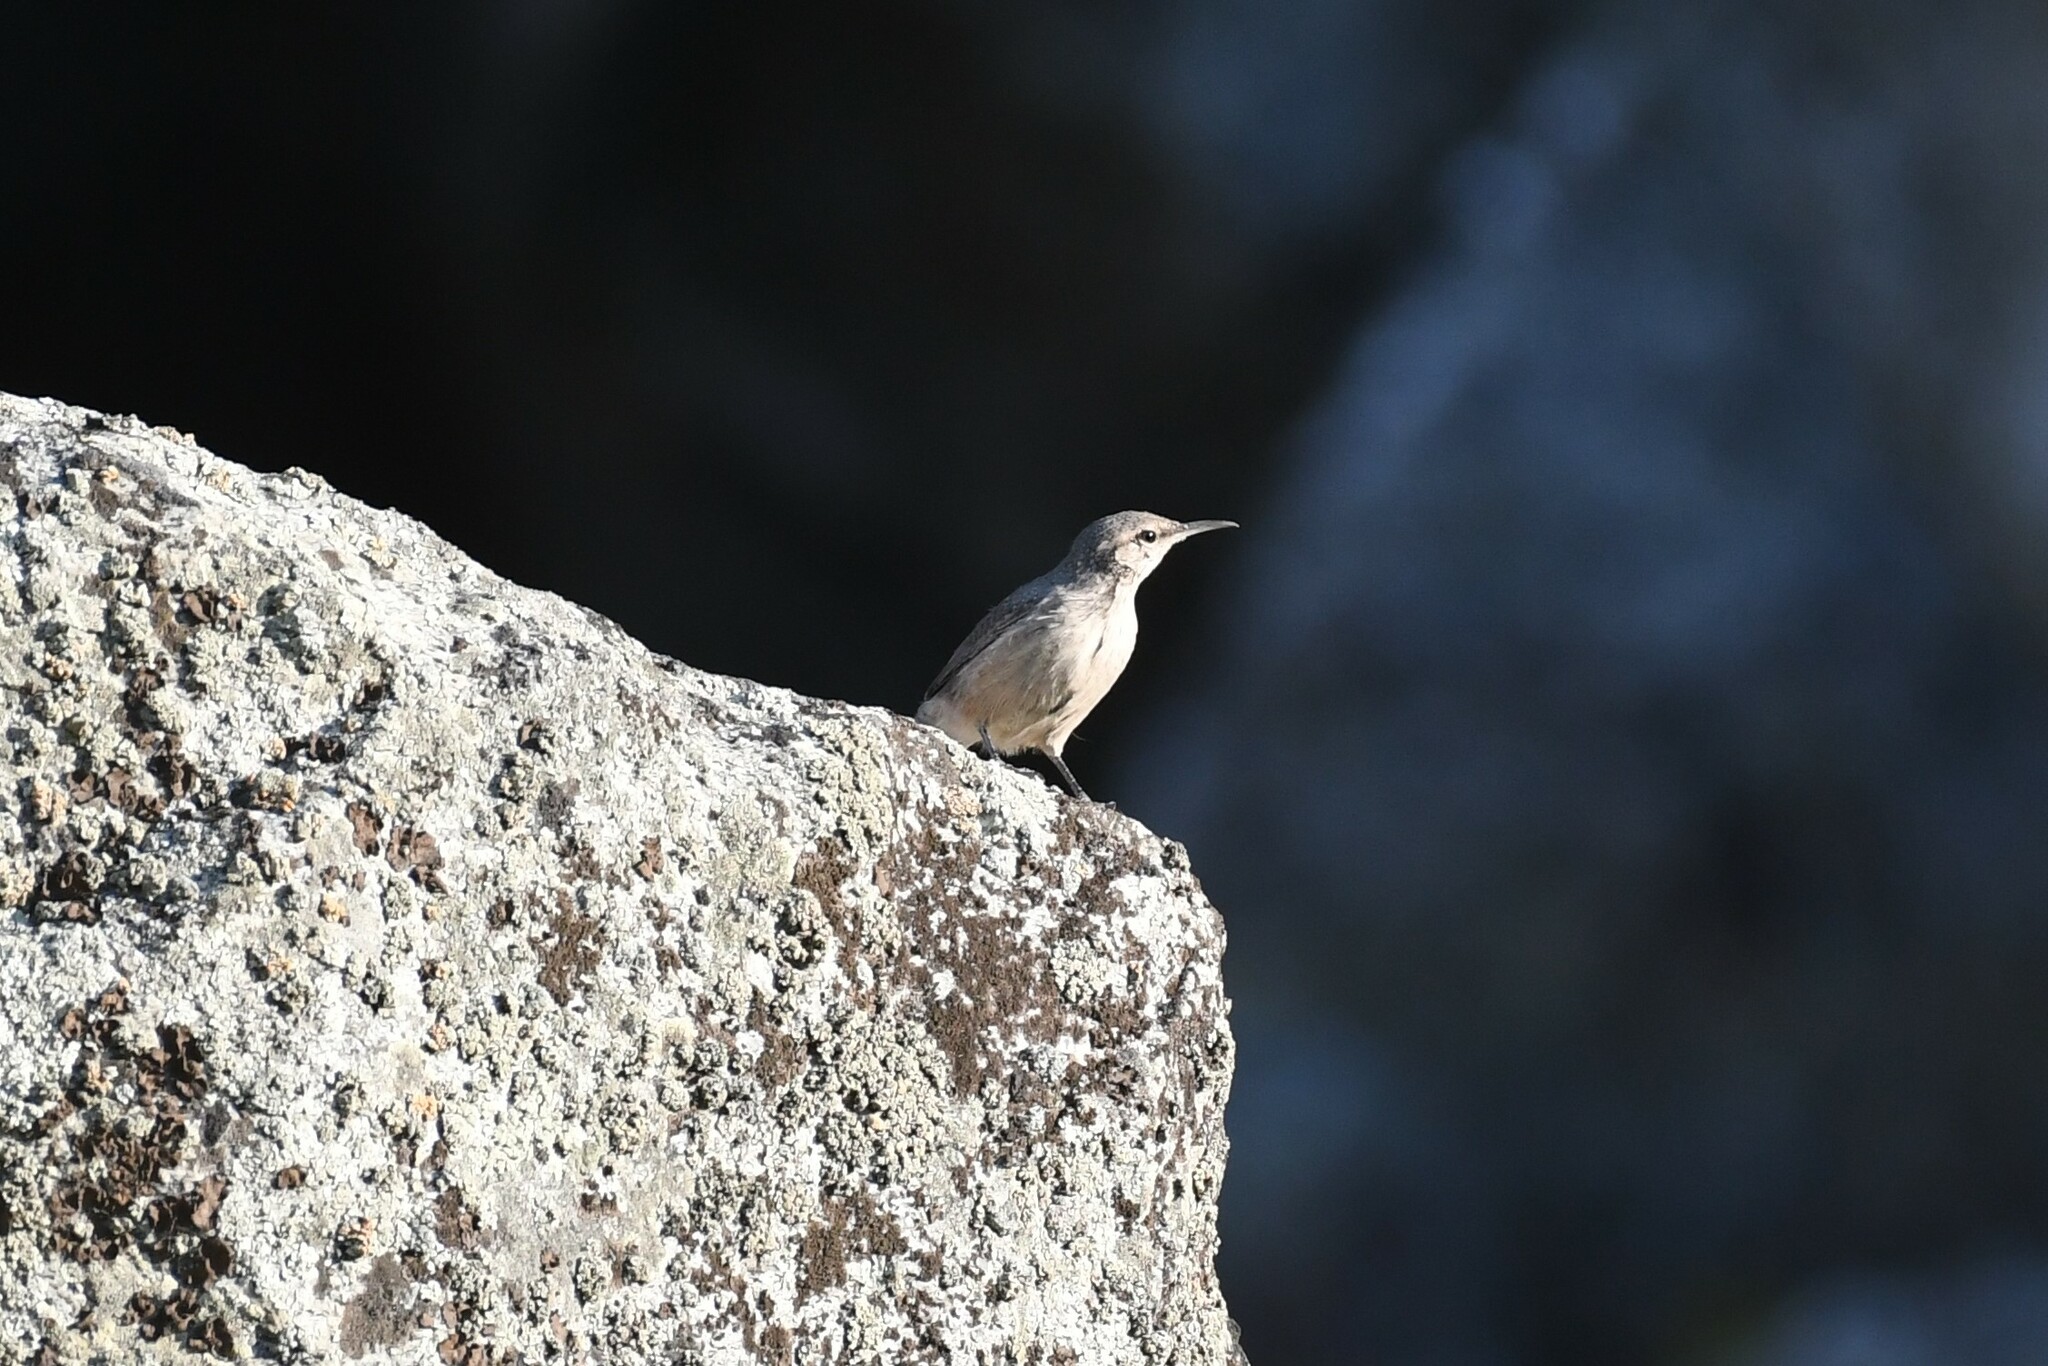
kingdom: Animalia
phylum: Chordata
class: Aves
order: Passeriformes
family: Troglodytidae
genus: Salpinctes
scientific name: Salpinctes obsoletus
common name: Rock wren
